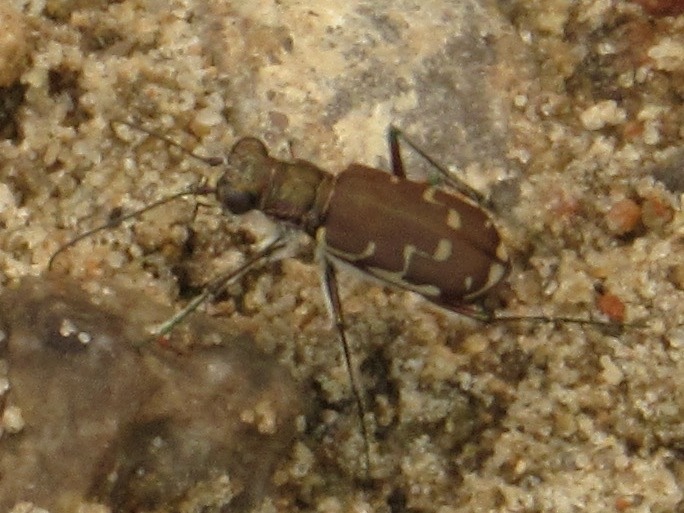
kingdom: Animalia
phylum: Arthropoda
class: Insecta
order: Coleoptera
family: Carabidae
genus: Cicindela
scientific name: Cicindela repanda
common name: Bronzed tiger beetle
